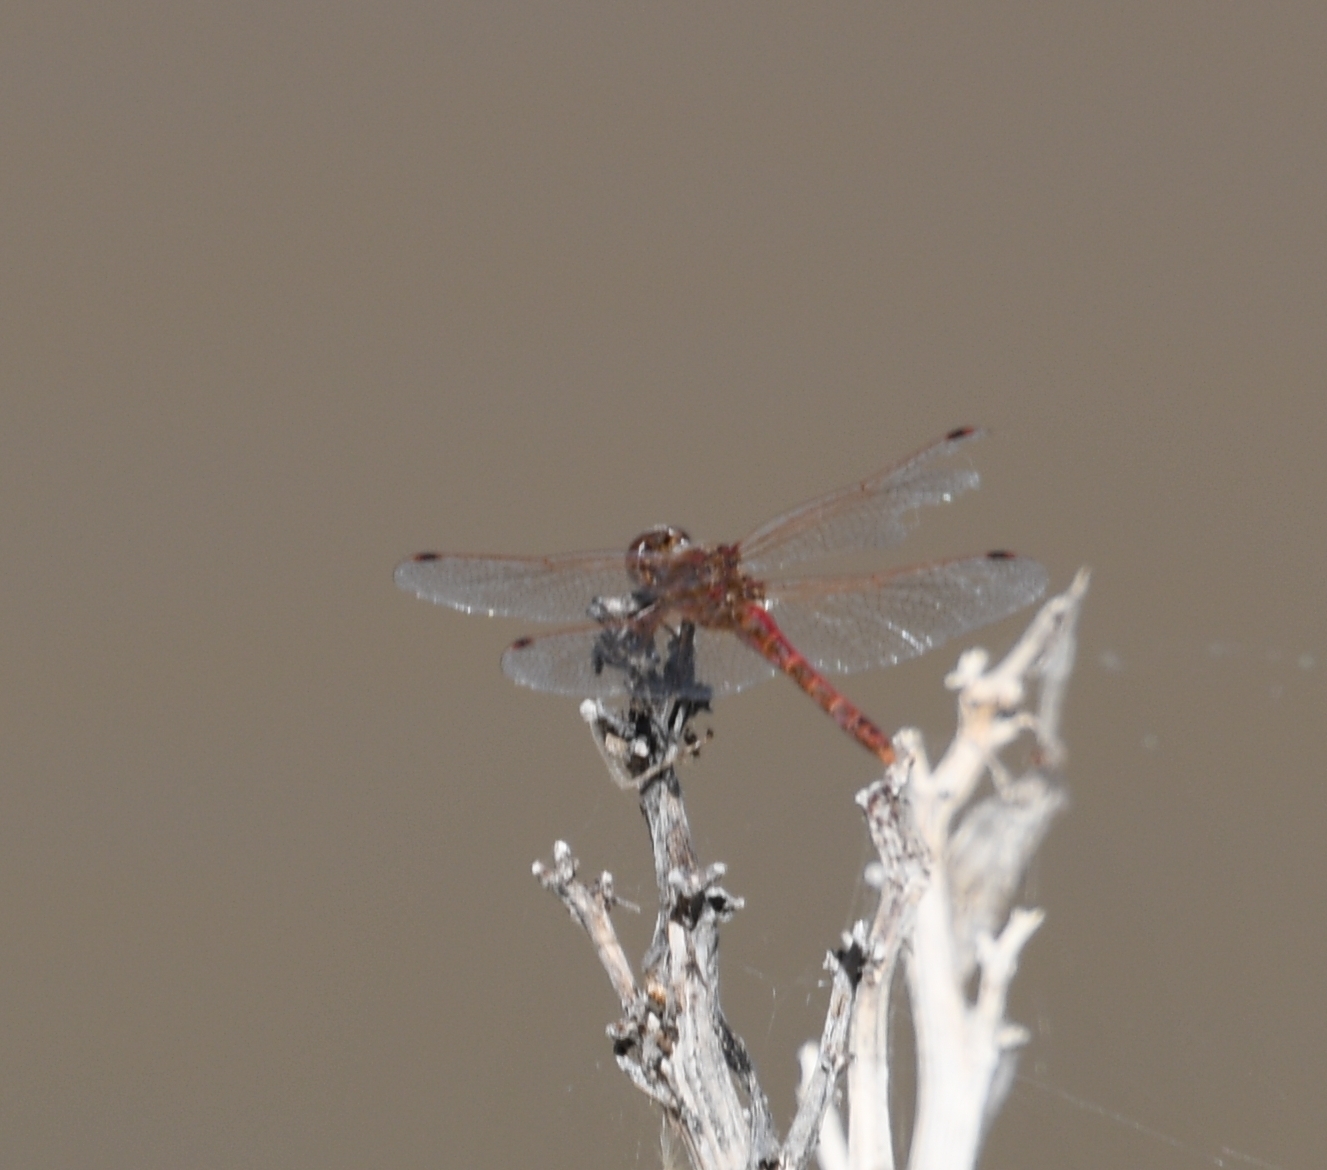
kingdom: Animalia
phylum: Arthropoda
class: Insecta
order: Odonata
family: Libellulidae
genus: Sympetrum
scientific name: Sympetrum corruptum
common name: Variegated meadowhawk
